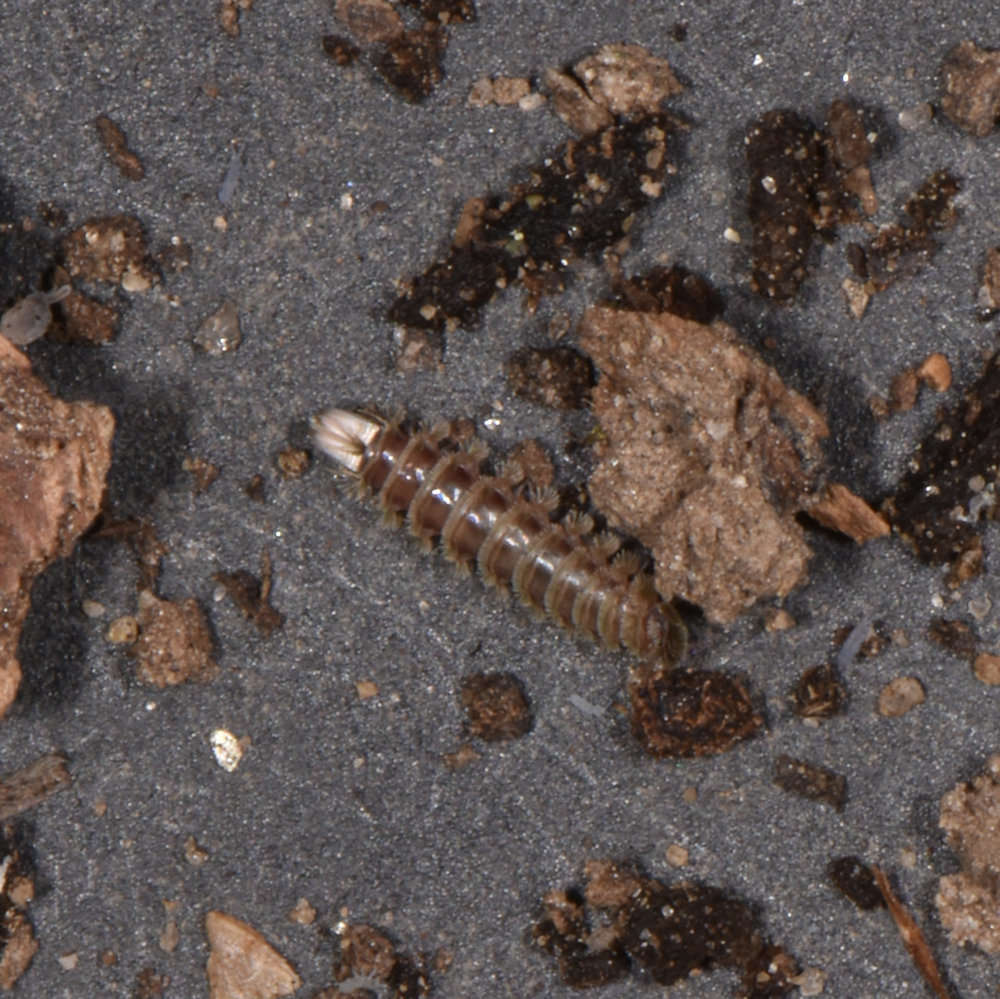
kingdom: Animalia
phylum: Arthropoda
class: Diplopoda
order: Polyxenida
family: Polyxenidae
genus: Polyxenus
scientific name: Polyxenus lagurus
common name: Bristly millipede
